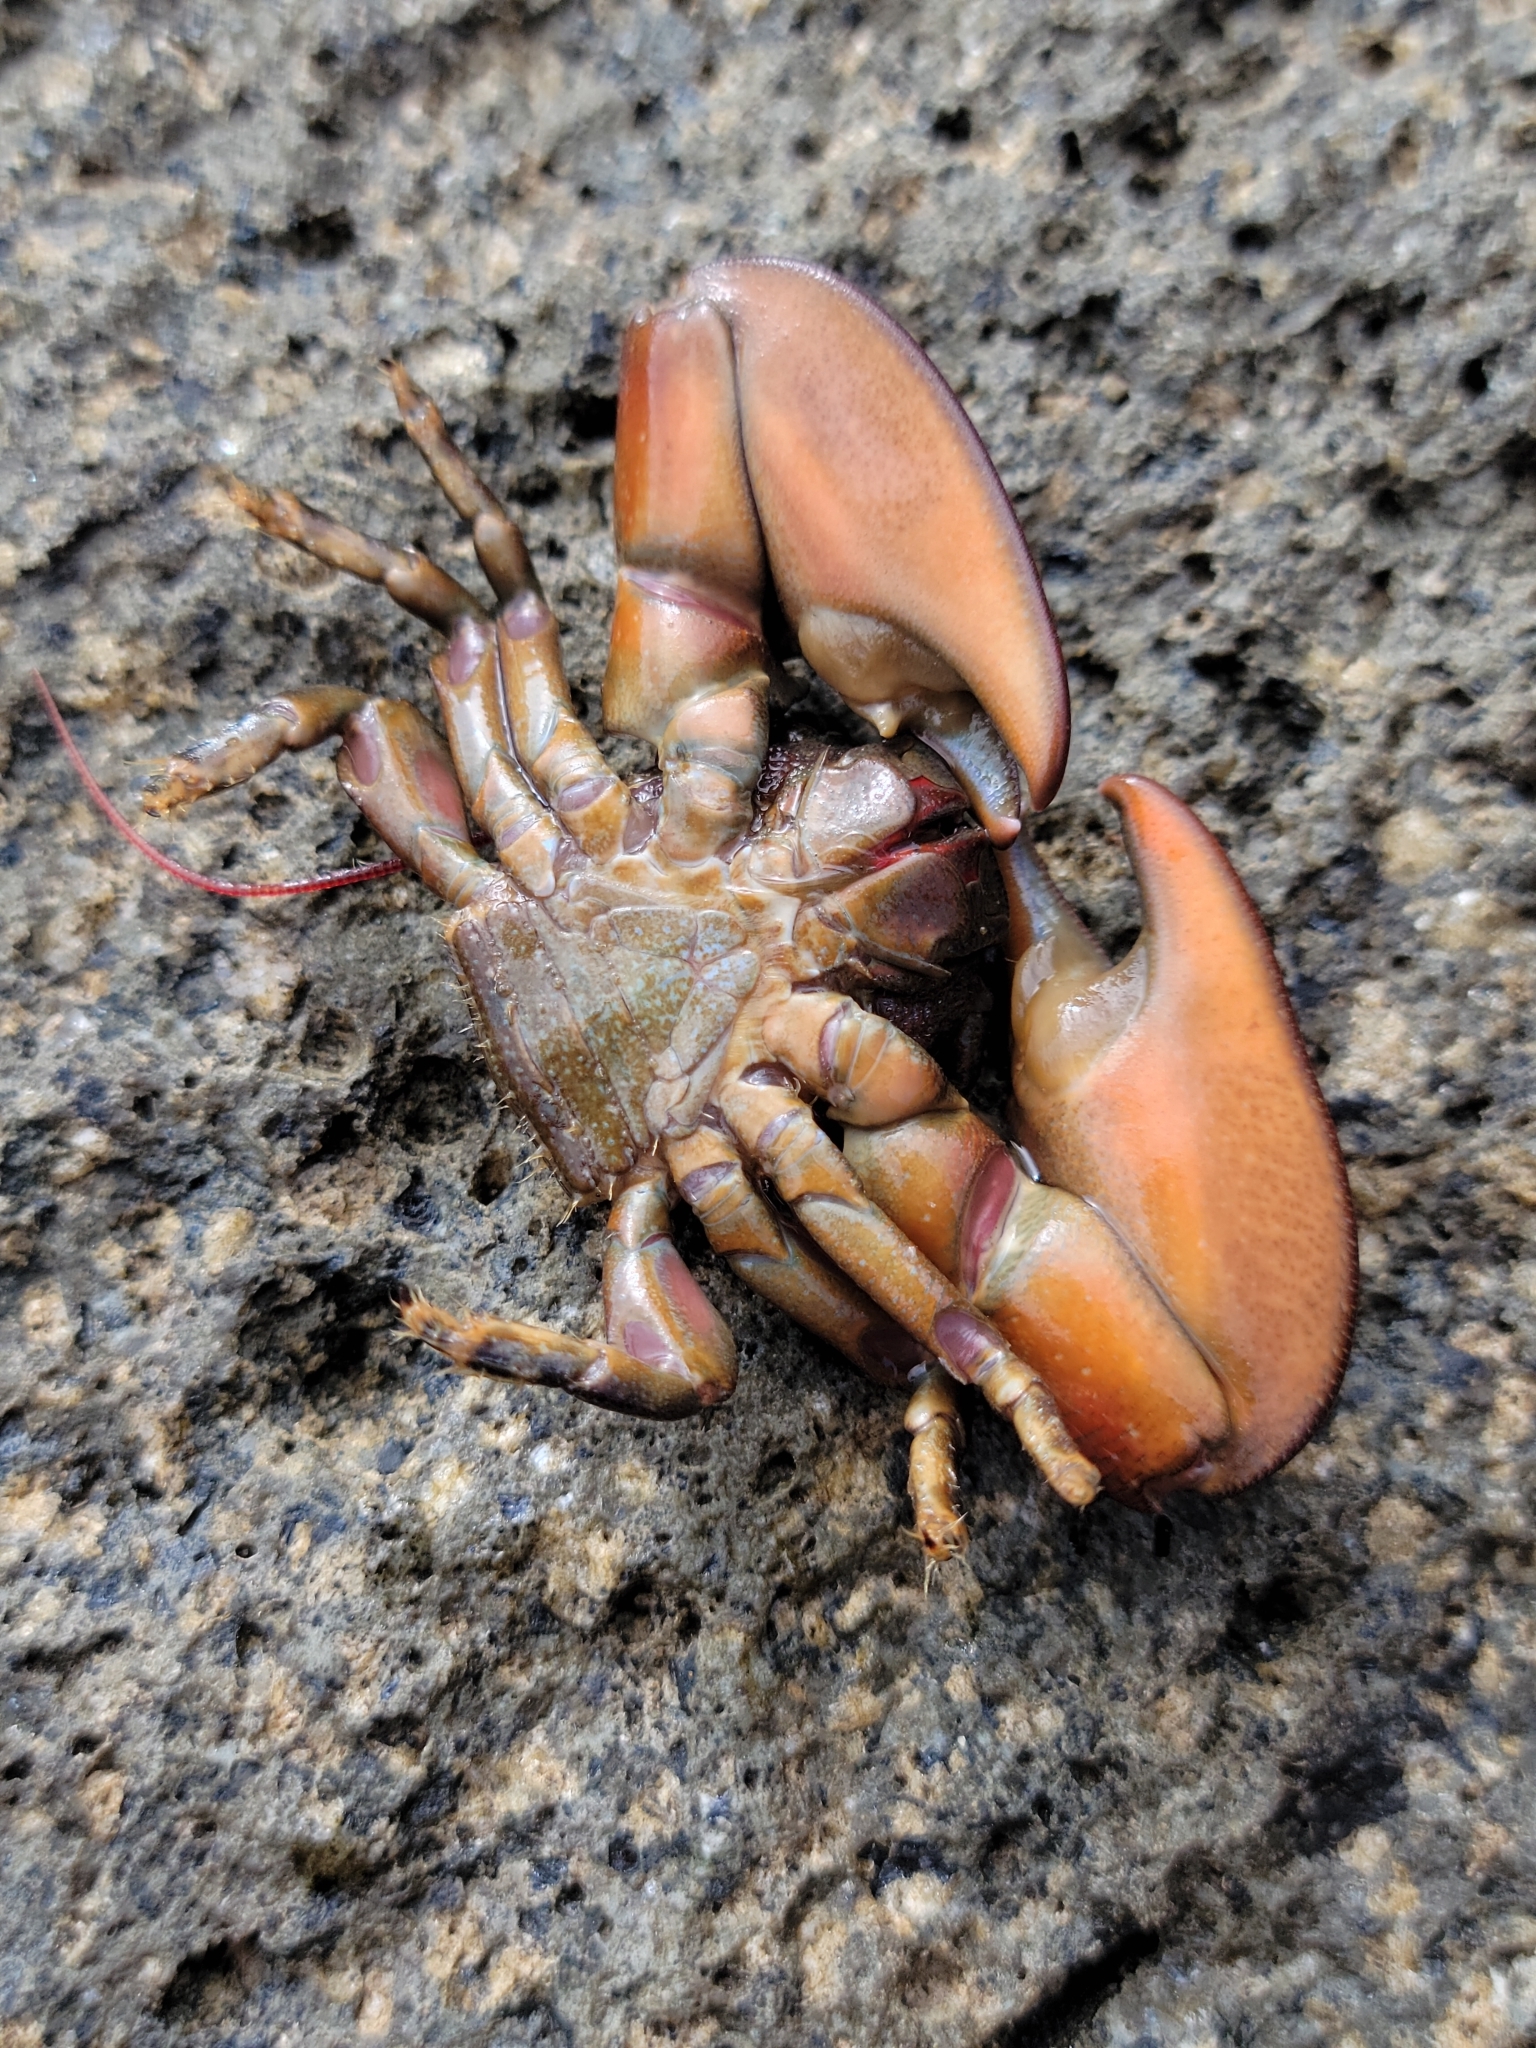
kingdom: Animalia
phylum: Arthropoda
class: Malacostraca
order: Decapoda
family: Porcellanidae
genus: Petrolisthes
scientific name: Petrolisthes cinctipes
